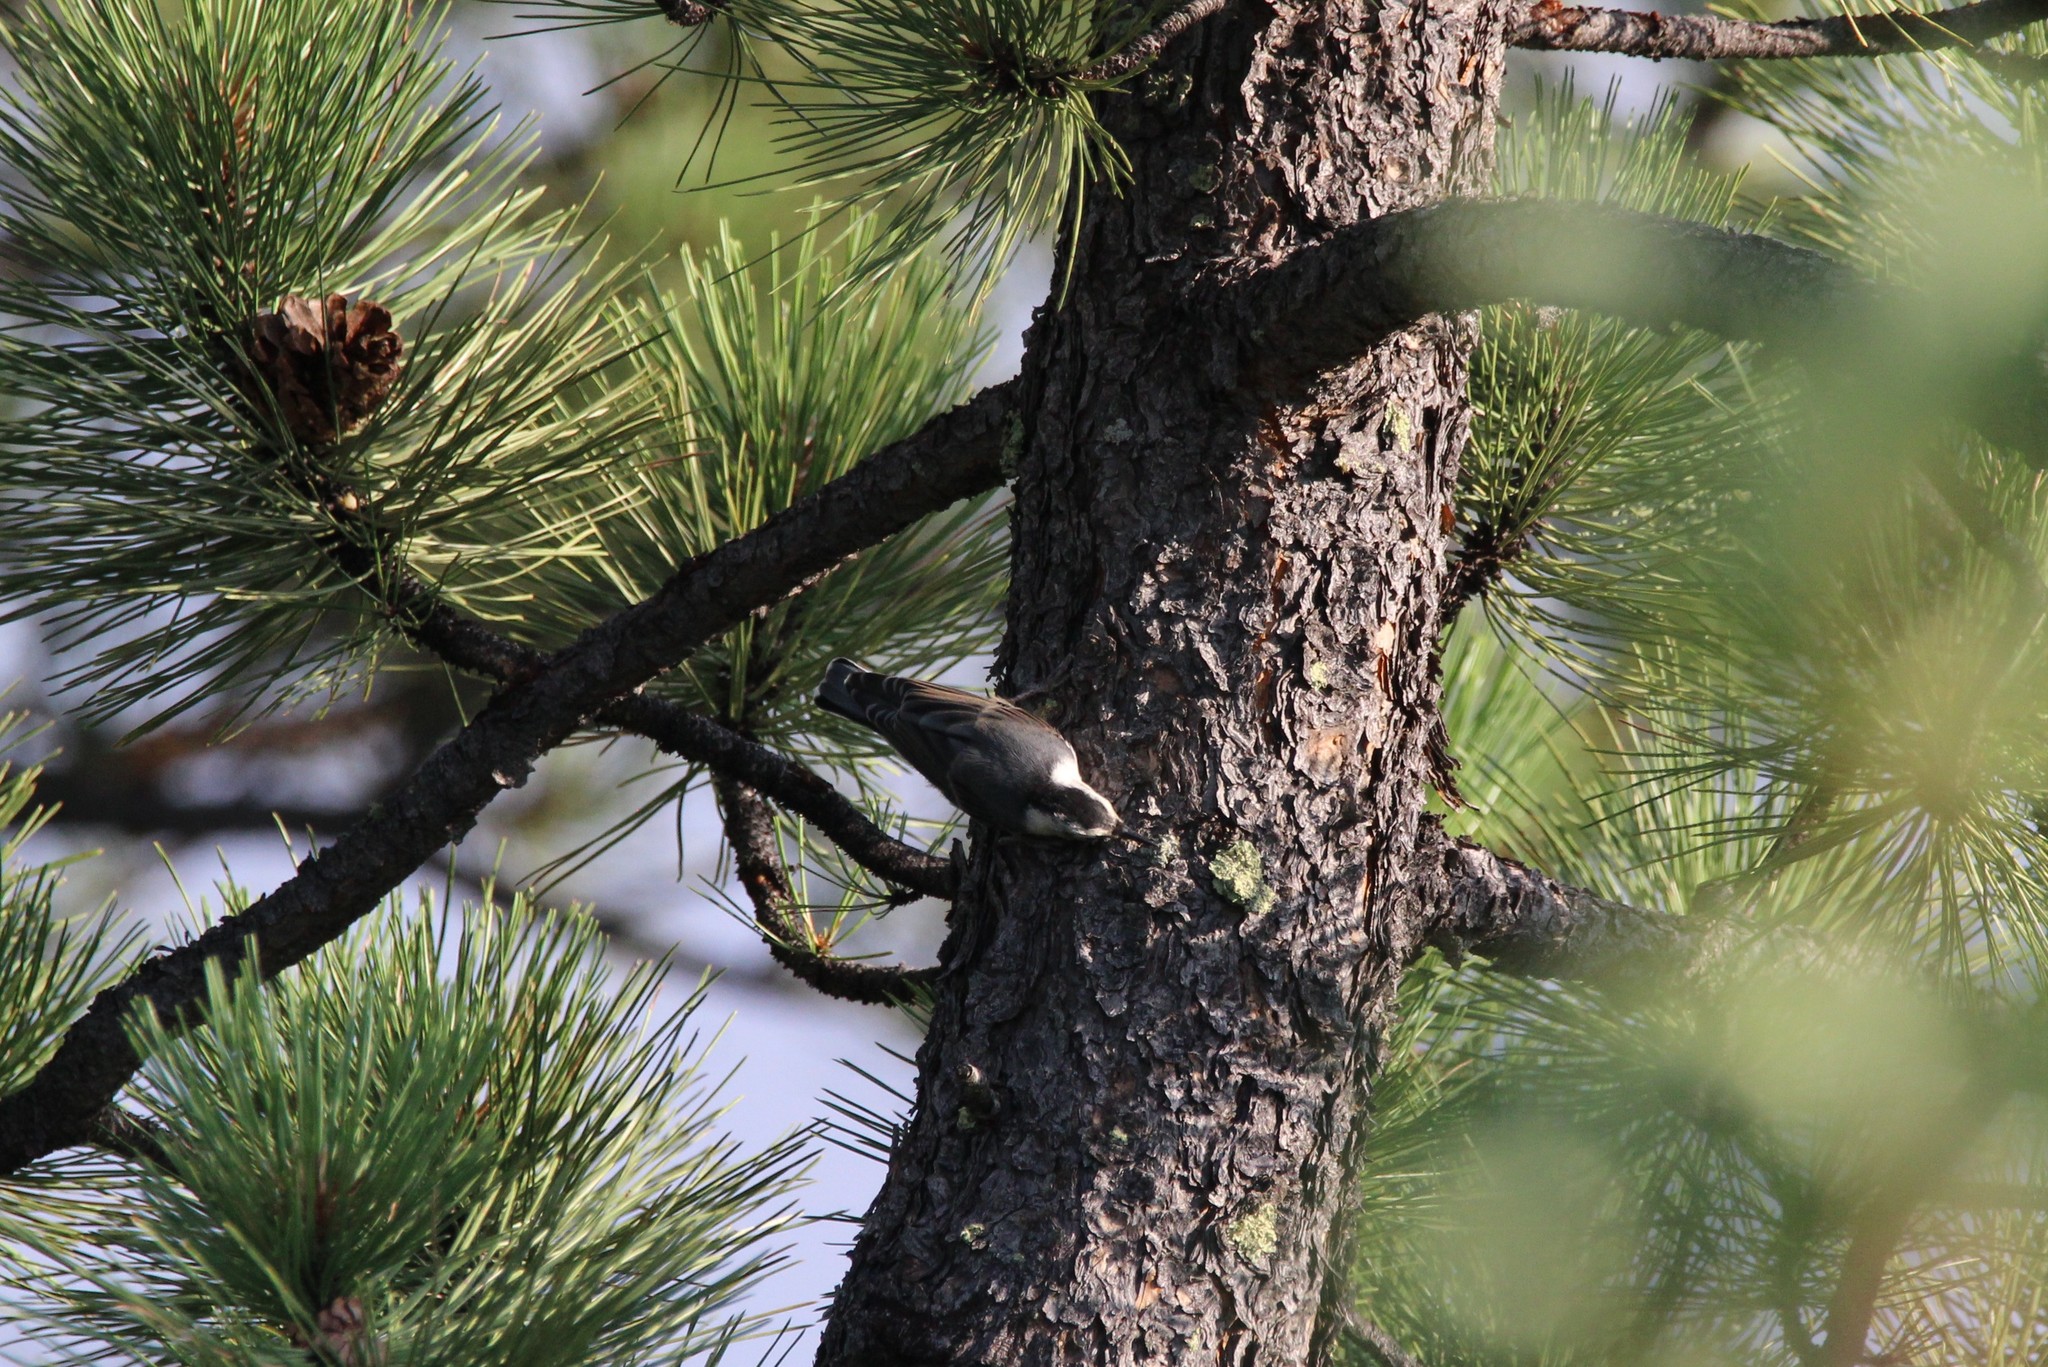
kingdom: Animalia
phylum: Chordata
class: Aves
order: Passeriformes
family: Sittidae
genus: Sitta
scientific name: Sitta carolinensis
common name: White-breasted nuthatch
